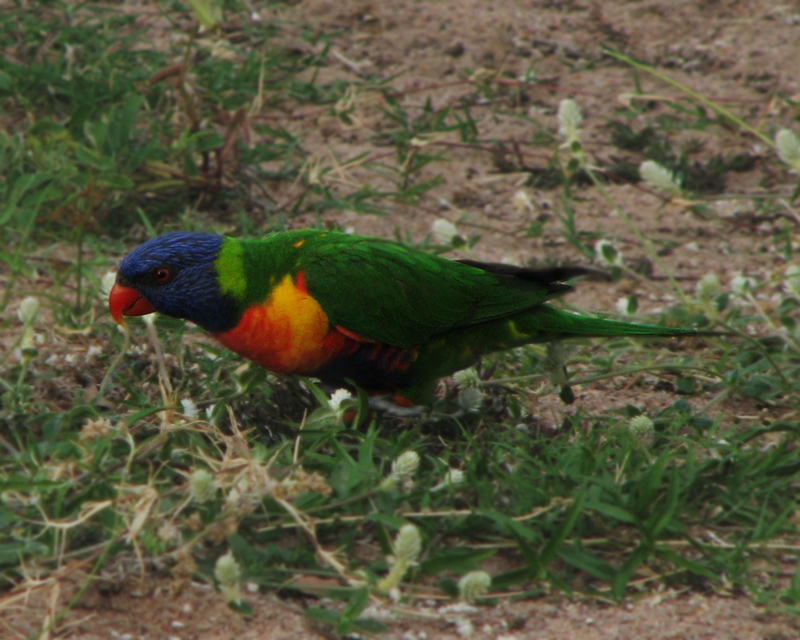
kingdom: Animalia
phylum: Chordata
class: Aves
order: Psittaciformes
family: Psittacidae
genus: Trichoglossus
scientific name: Trichoglossus haematodus
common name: Coconut lorikeet
